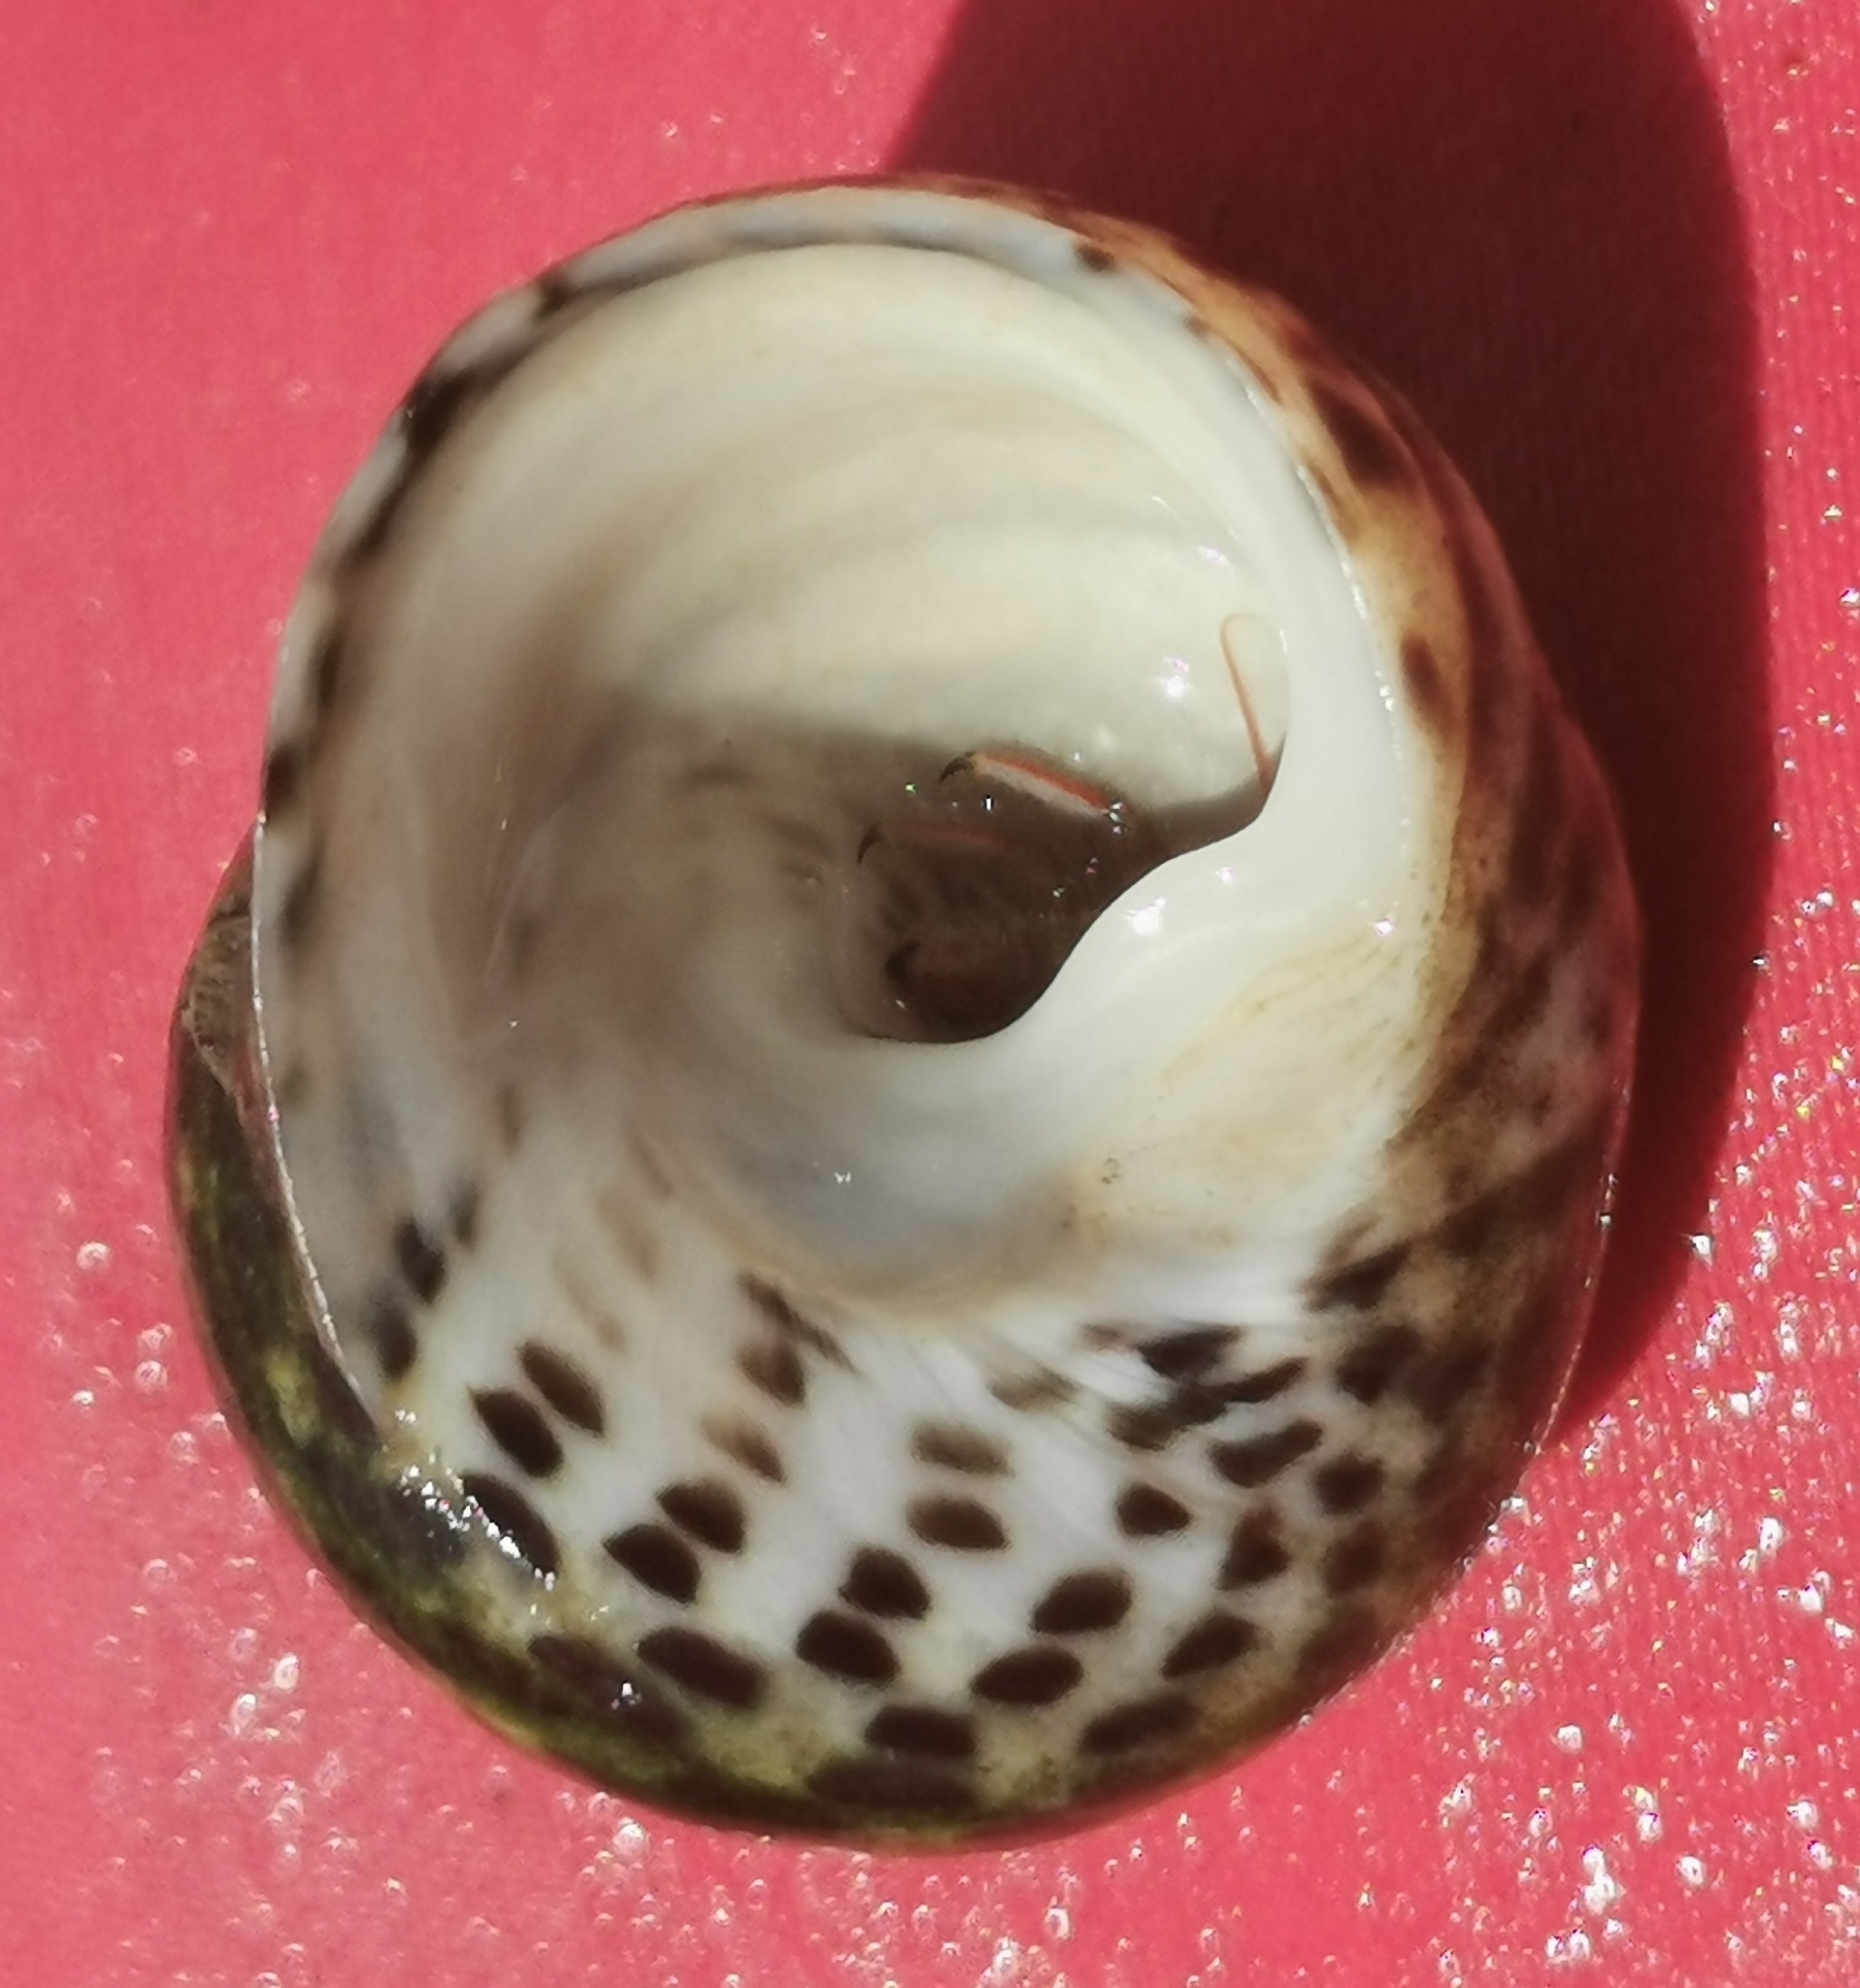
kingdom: Animalia
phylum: Mollusca
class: Gastropoda
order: Trochida
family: Trochidae
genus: Phorcus
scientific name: Phorcus turbinatus
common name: Turbinate monodont
